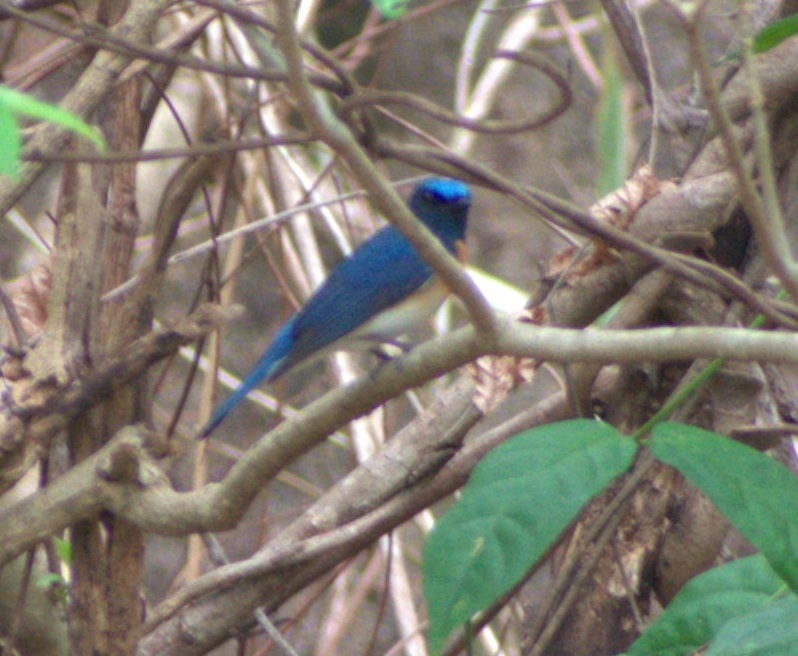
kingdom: Animalia
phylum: Chordata
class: Aves
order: Passeriformes
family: Muscicapidae
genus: Cyornis
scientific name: Cyornis rubeculoides
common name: Blue-throated blue flycatcher
